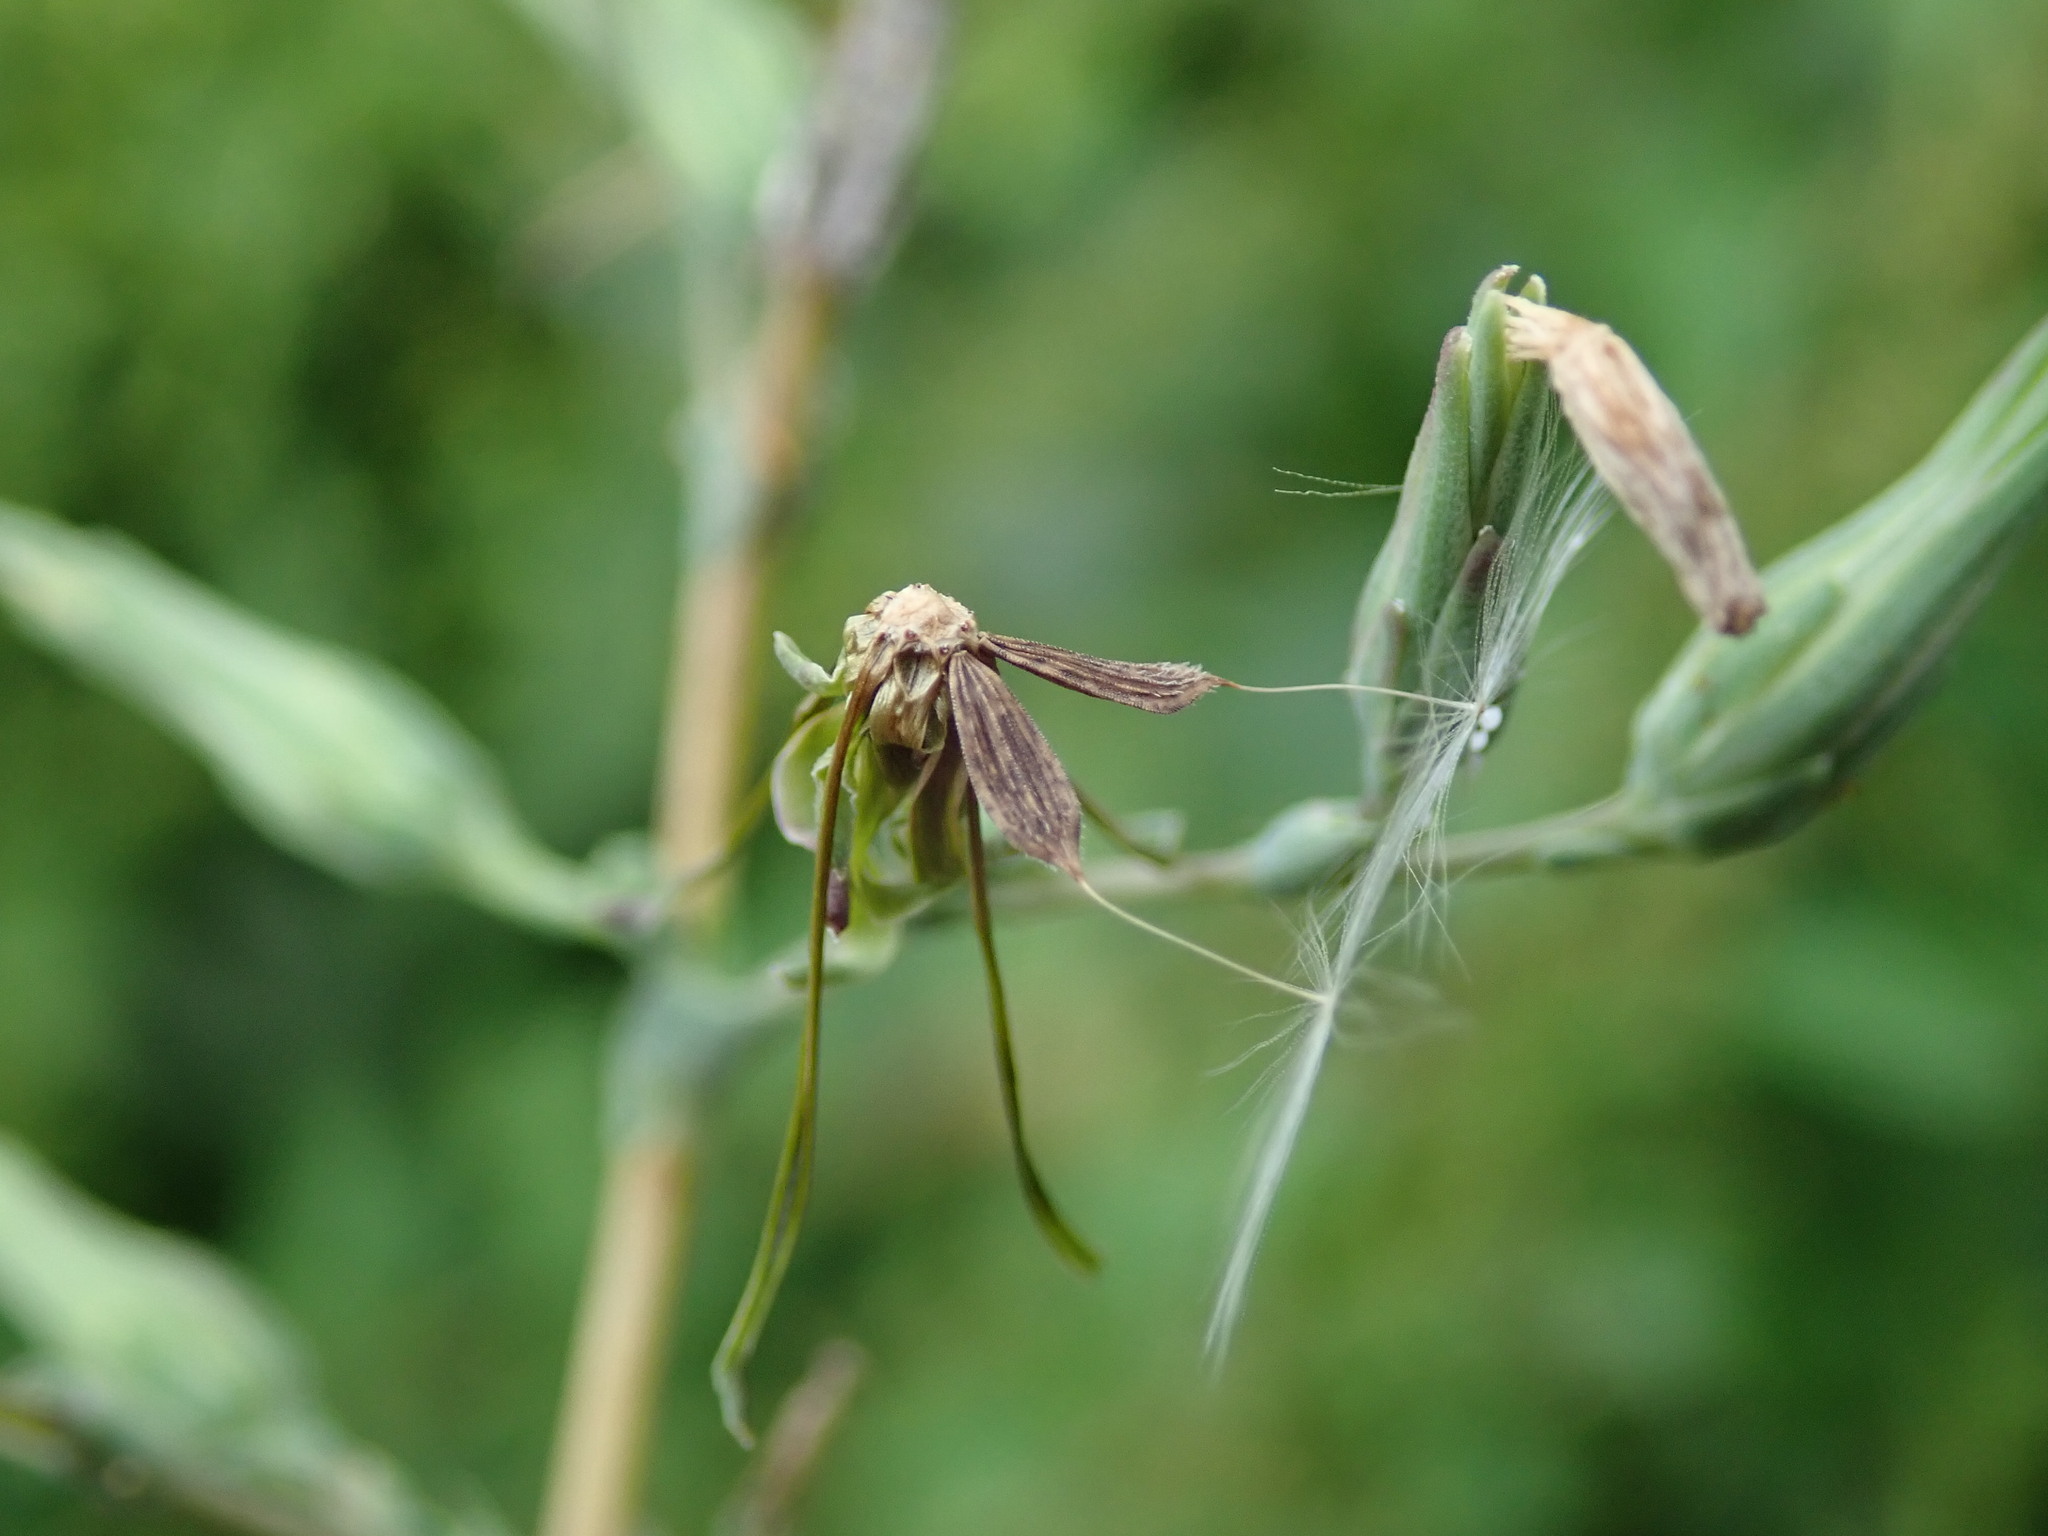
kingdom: Plantae
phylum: Tracheophyta
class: Magnoliopsida
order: Asterales
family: Asteraceae
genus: Lactuca
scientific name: Lactuca serriola
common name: Prickly lettuce
